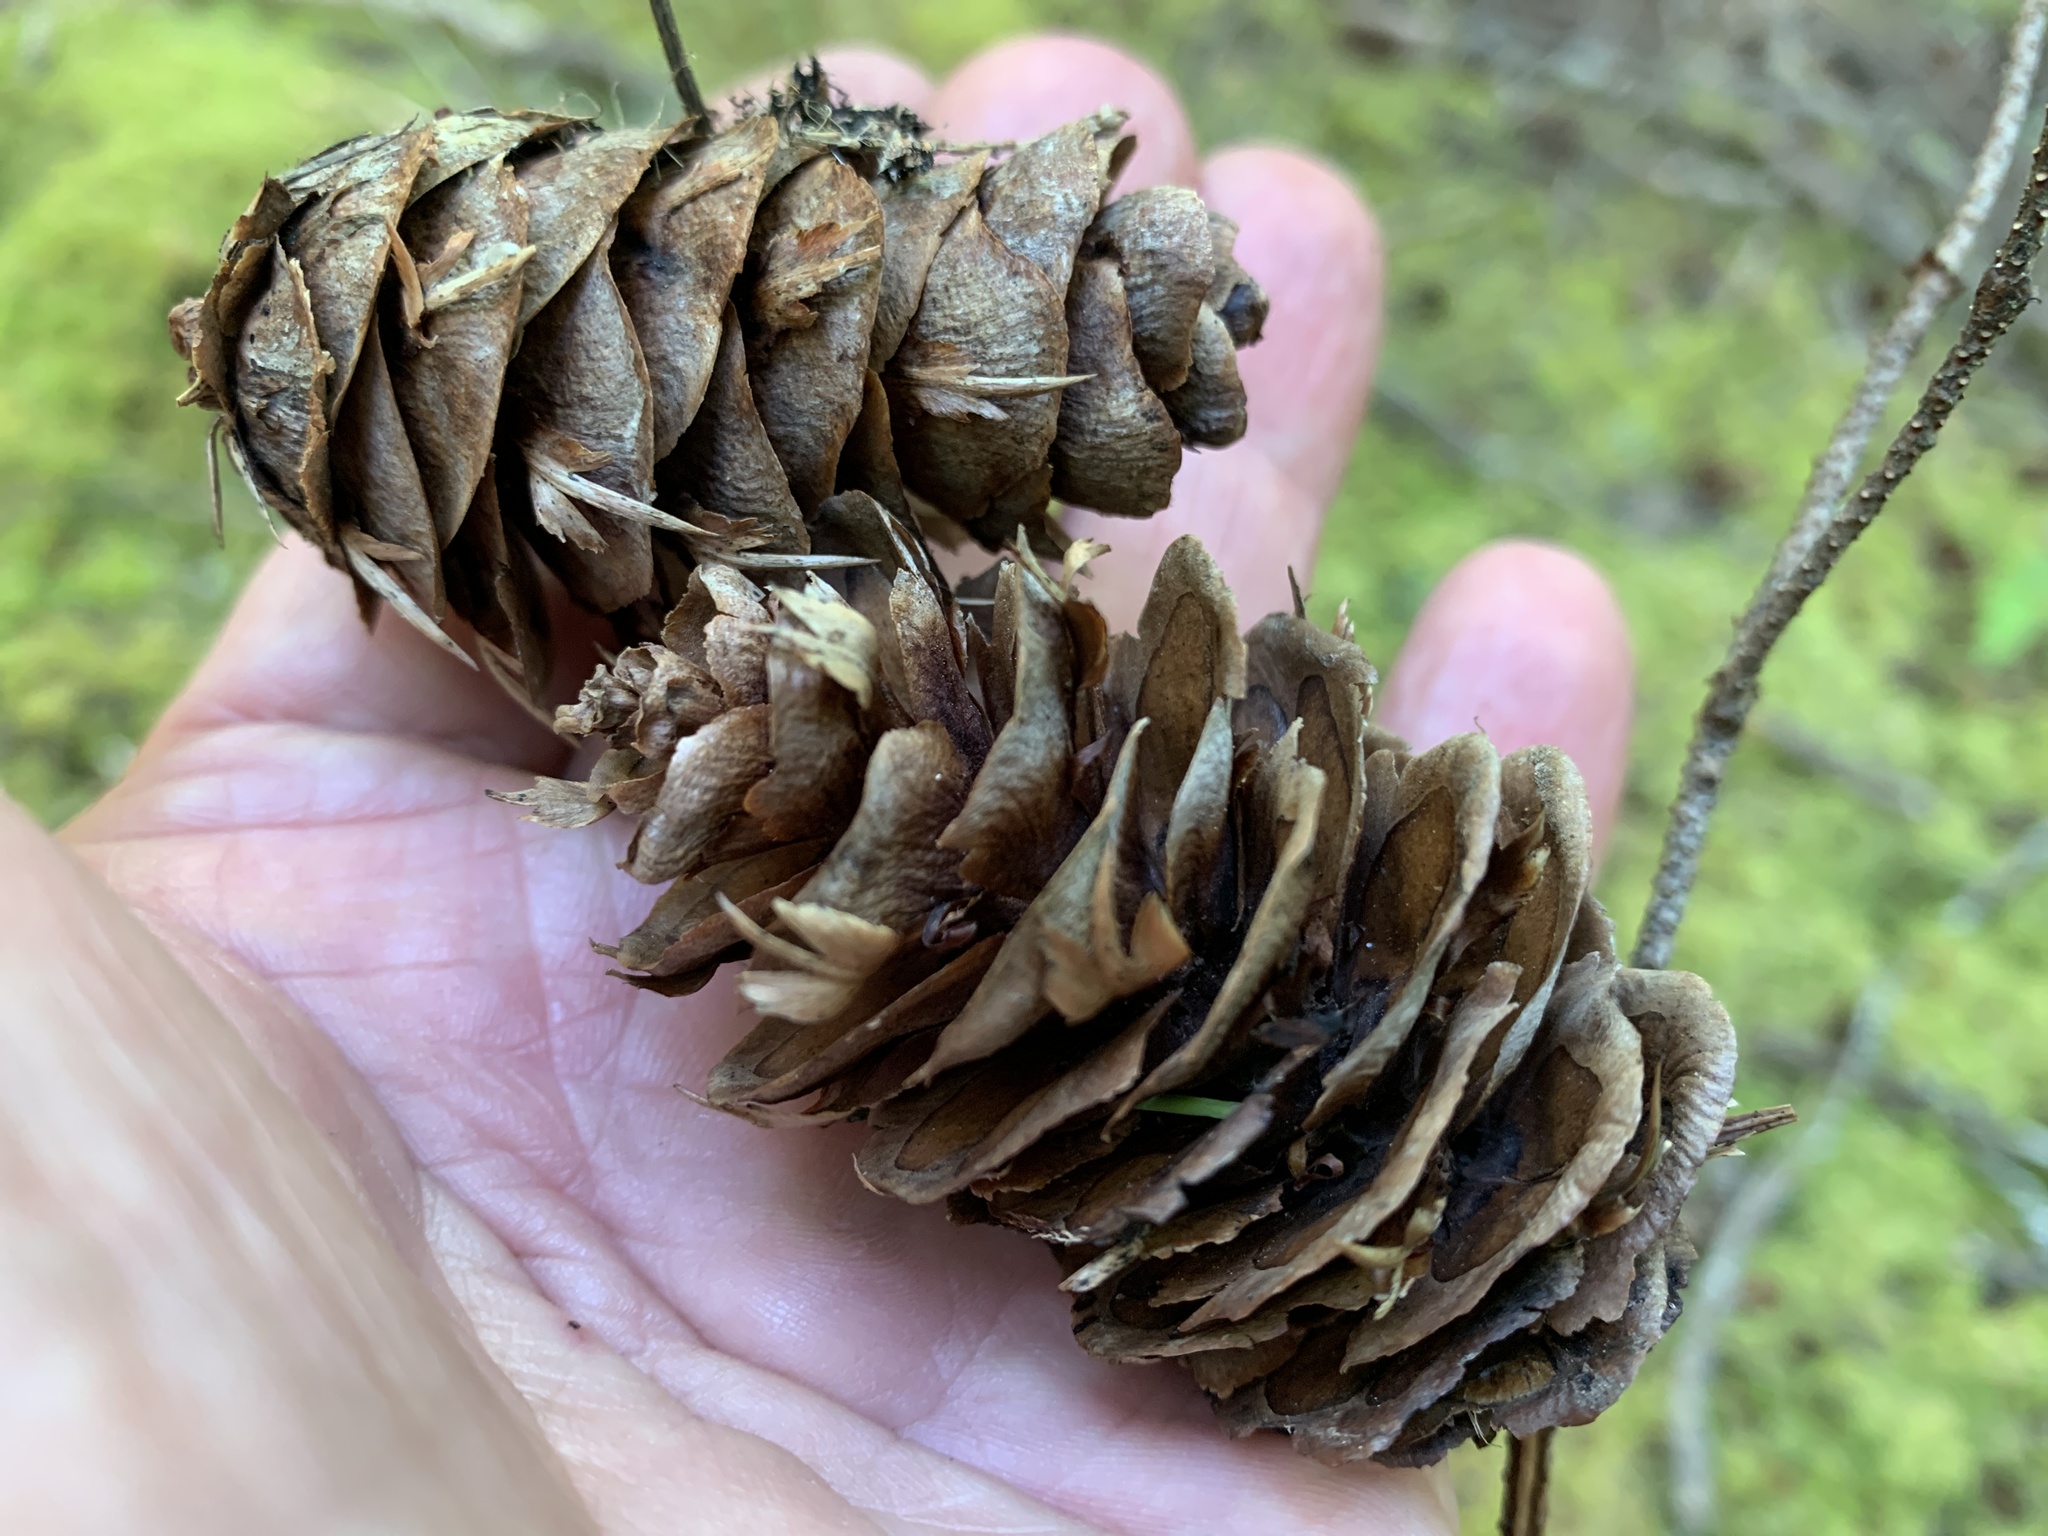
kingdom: Plantae
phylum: Tracheophyta
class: Pinopsida
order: Pinales
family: Pinaceae
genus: Pseudotsuga
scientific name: Pseudotsuga menziesii
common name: Douglas fir
